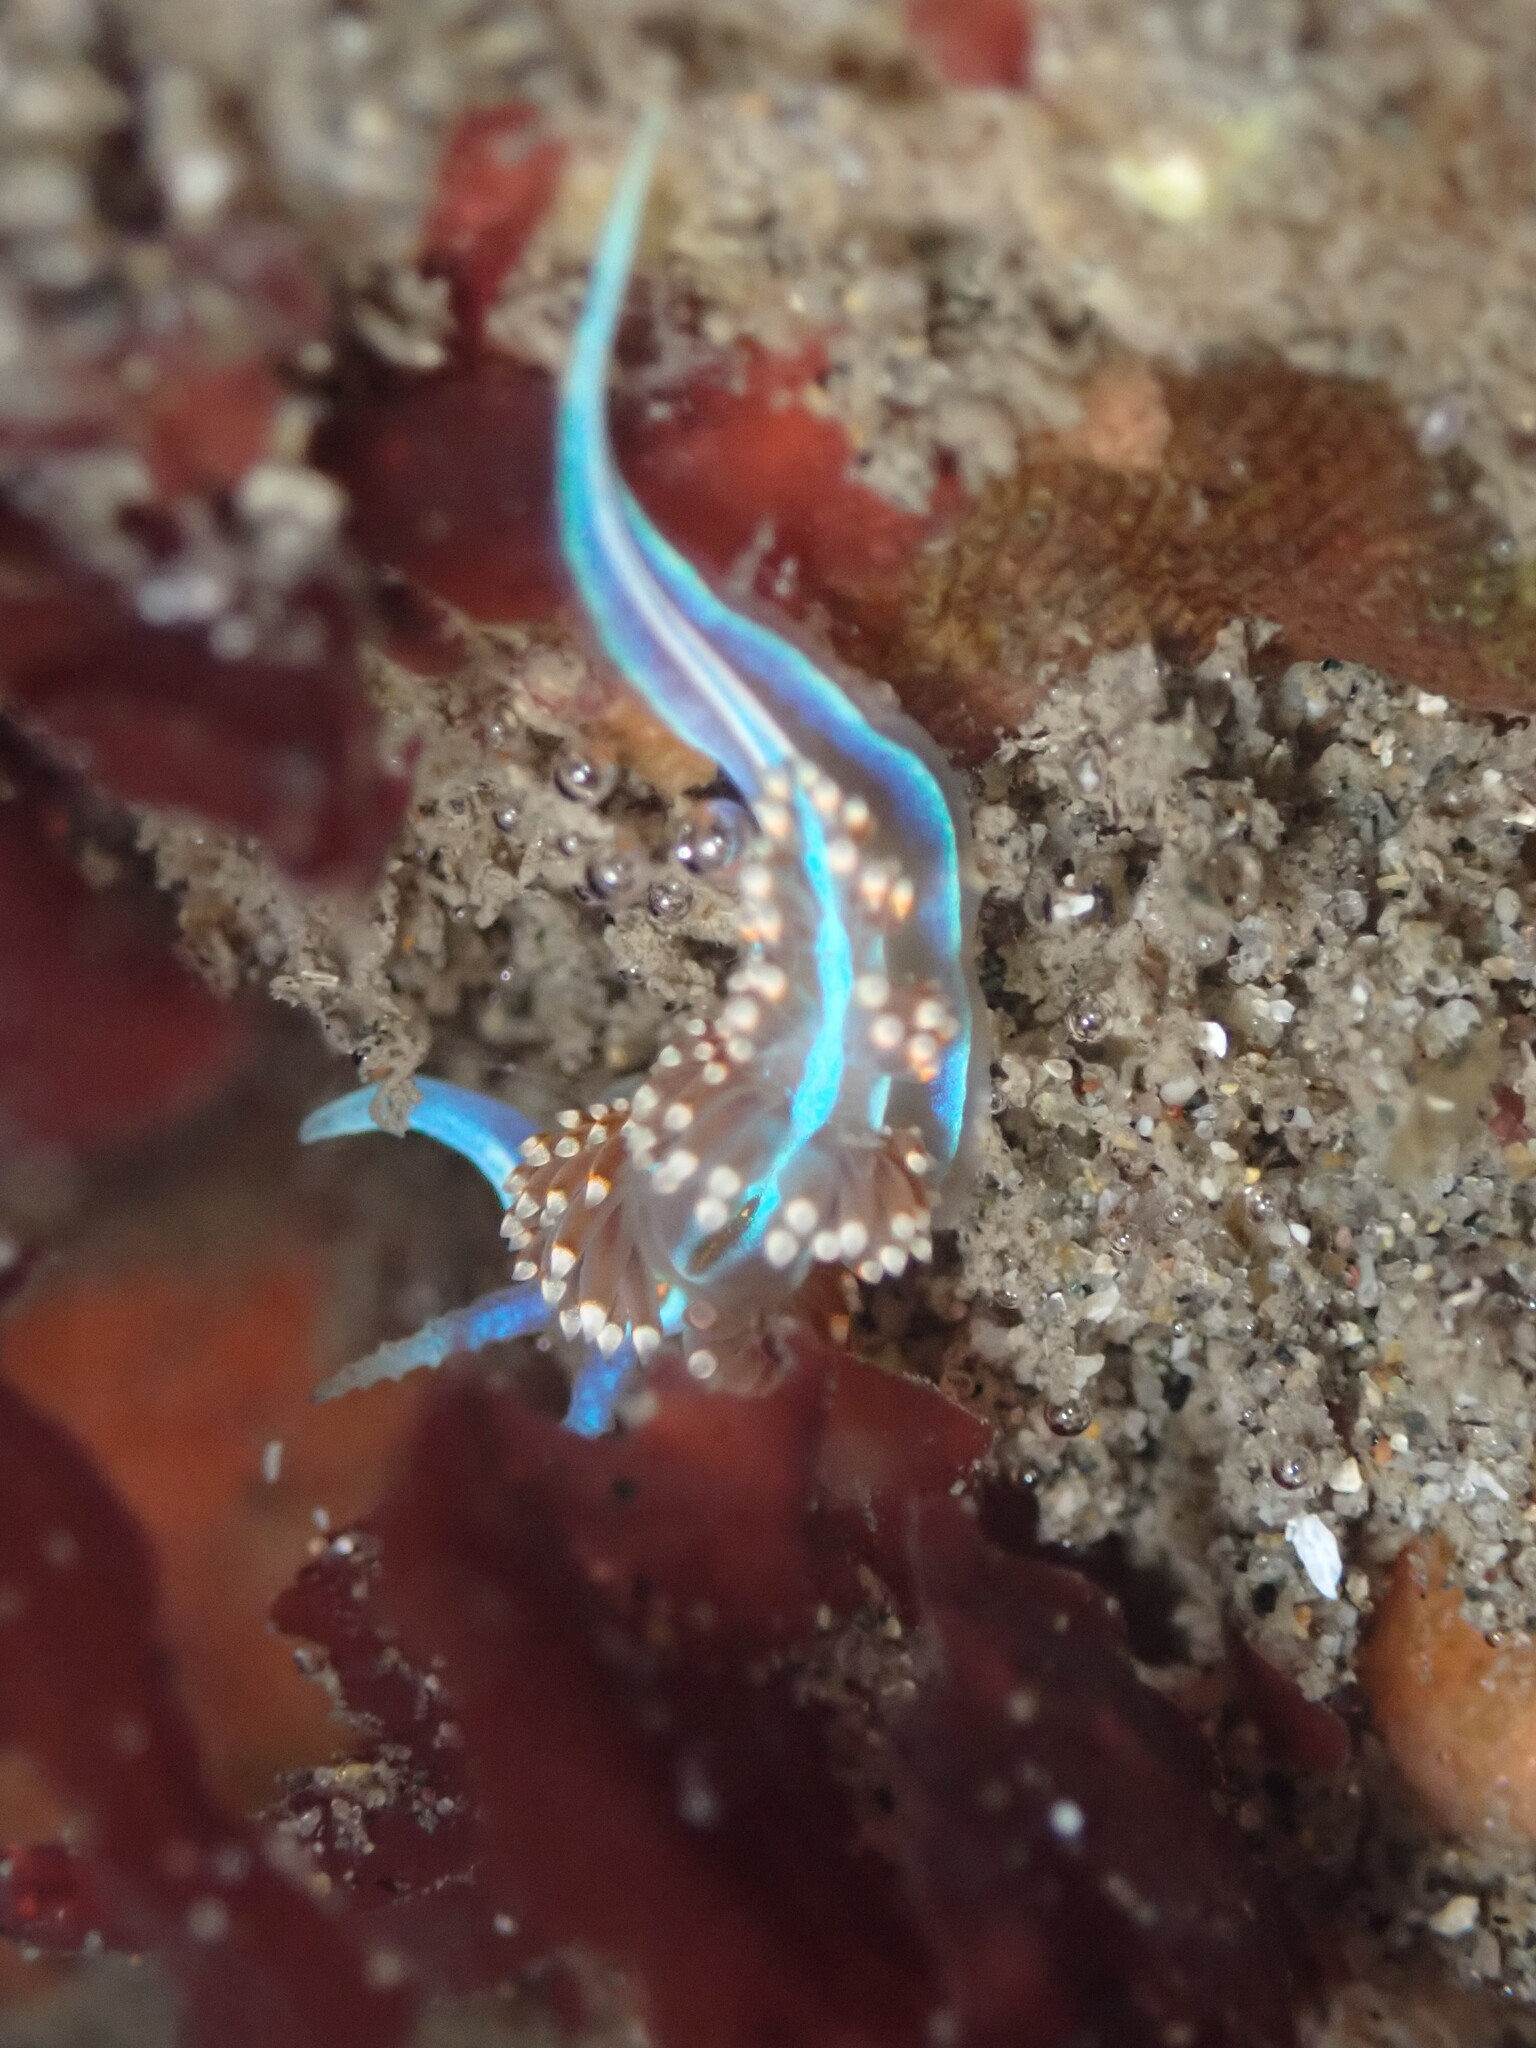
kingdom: Animalia
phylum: Mollusca
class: Gastropoda
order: Nudibranchia
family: Myrrhinidae
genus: Hermissenda
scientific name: Hermissenda opalescens
